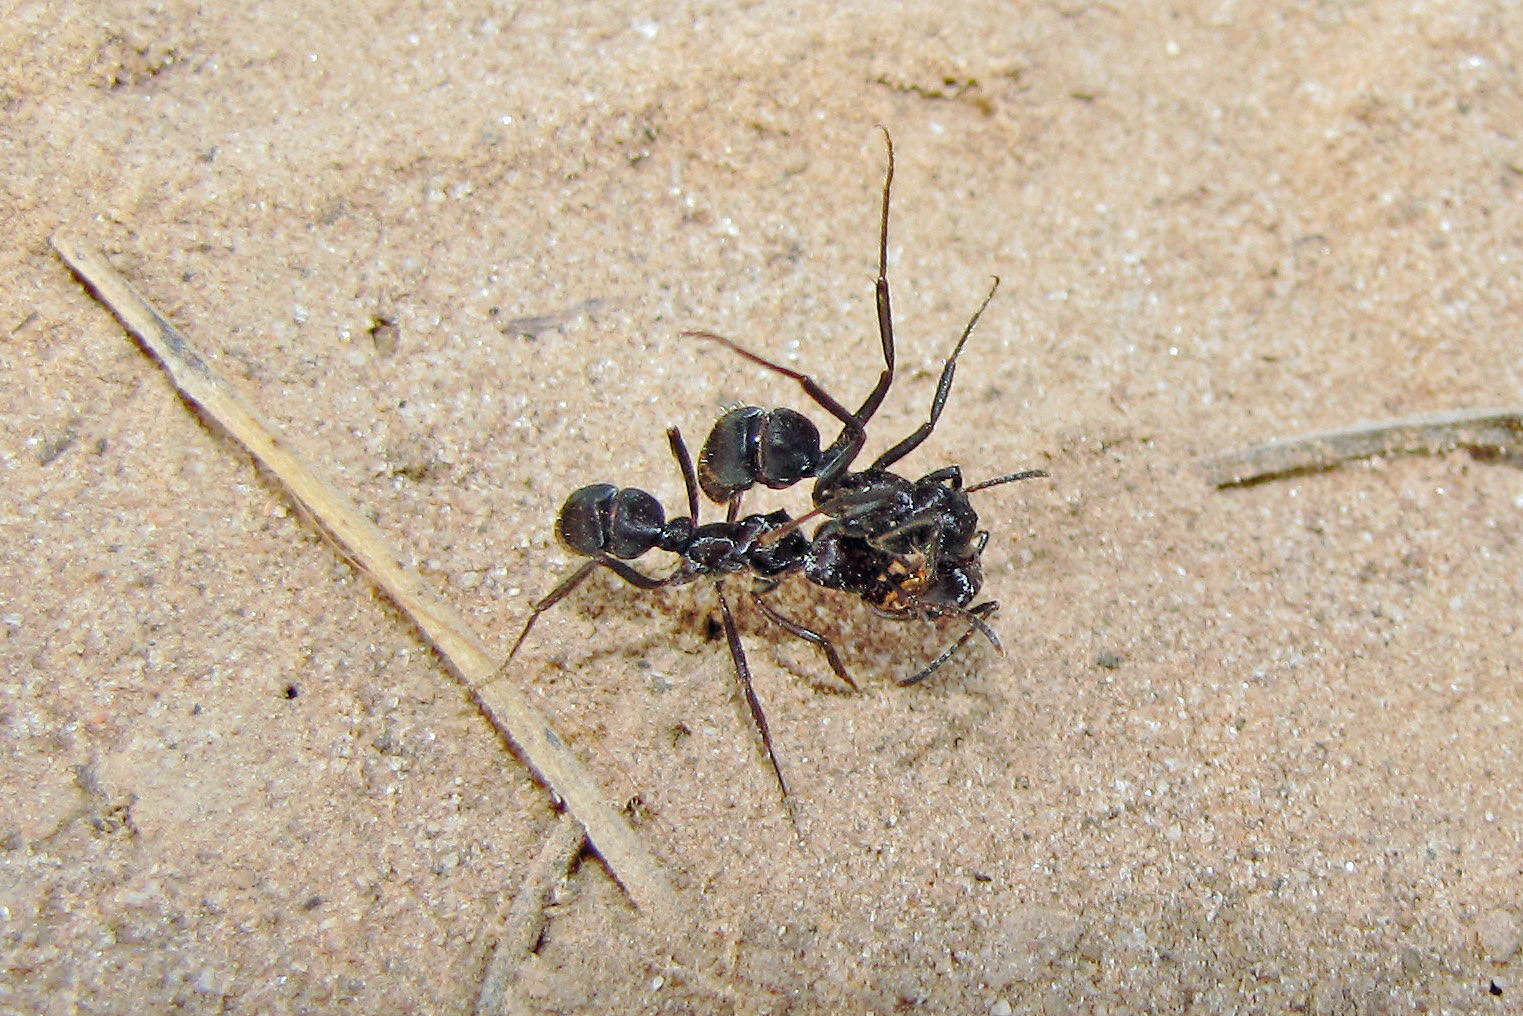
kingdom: Animalia
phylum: Arthropoda
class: Insecta
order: Hymenoptera
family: Formicidae
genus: Ectatomma
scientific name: Ectatomma brunneum
